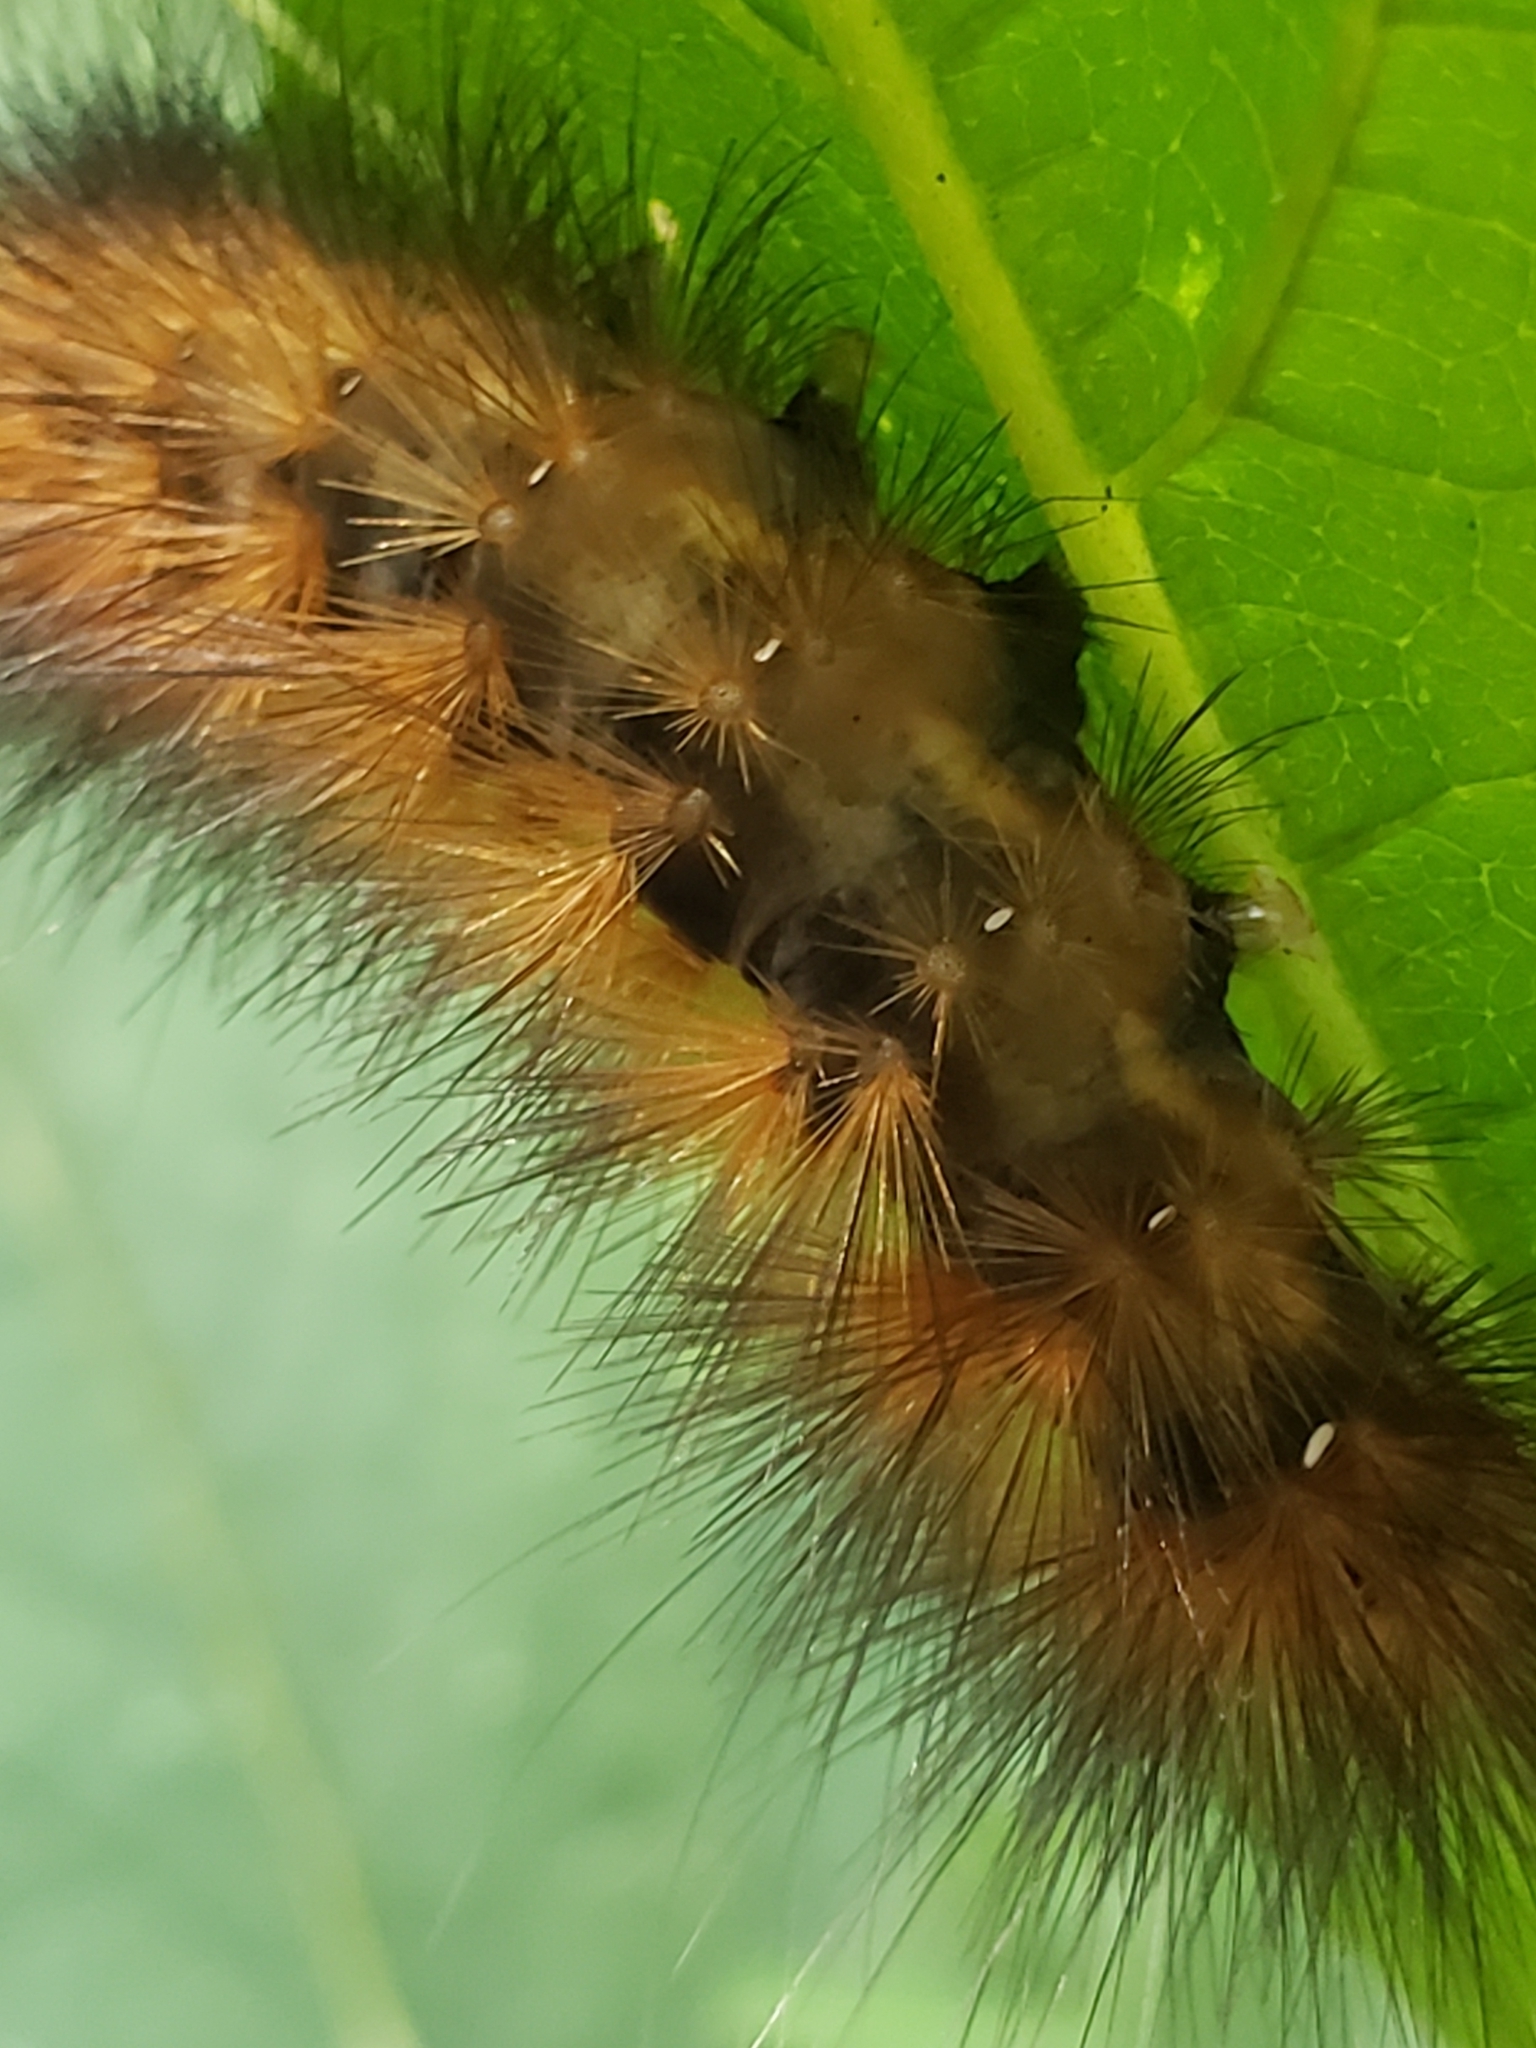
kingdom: Animalia
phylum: Arthropoda
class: Insecta
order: Lepidoptera
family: Erebidae
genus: Spilosoma
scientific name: Spilosoma virginica
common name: Virginia tiger moth
